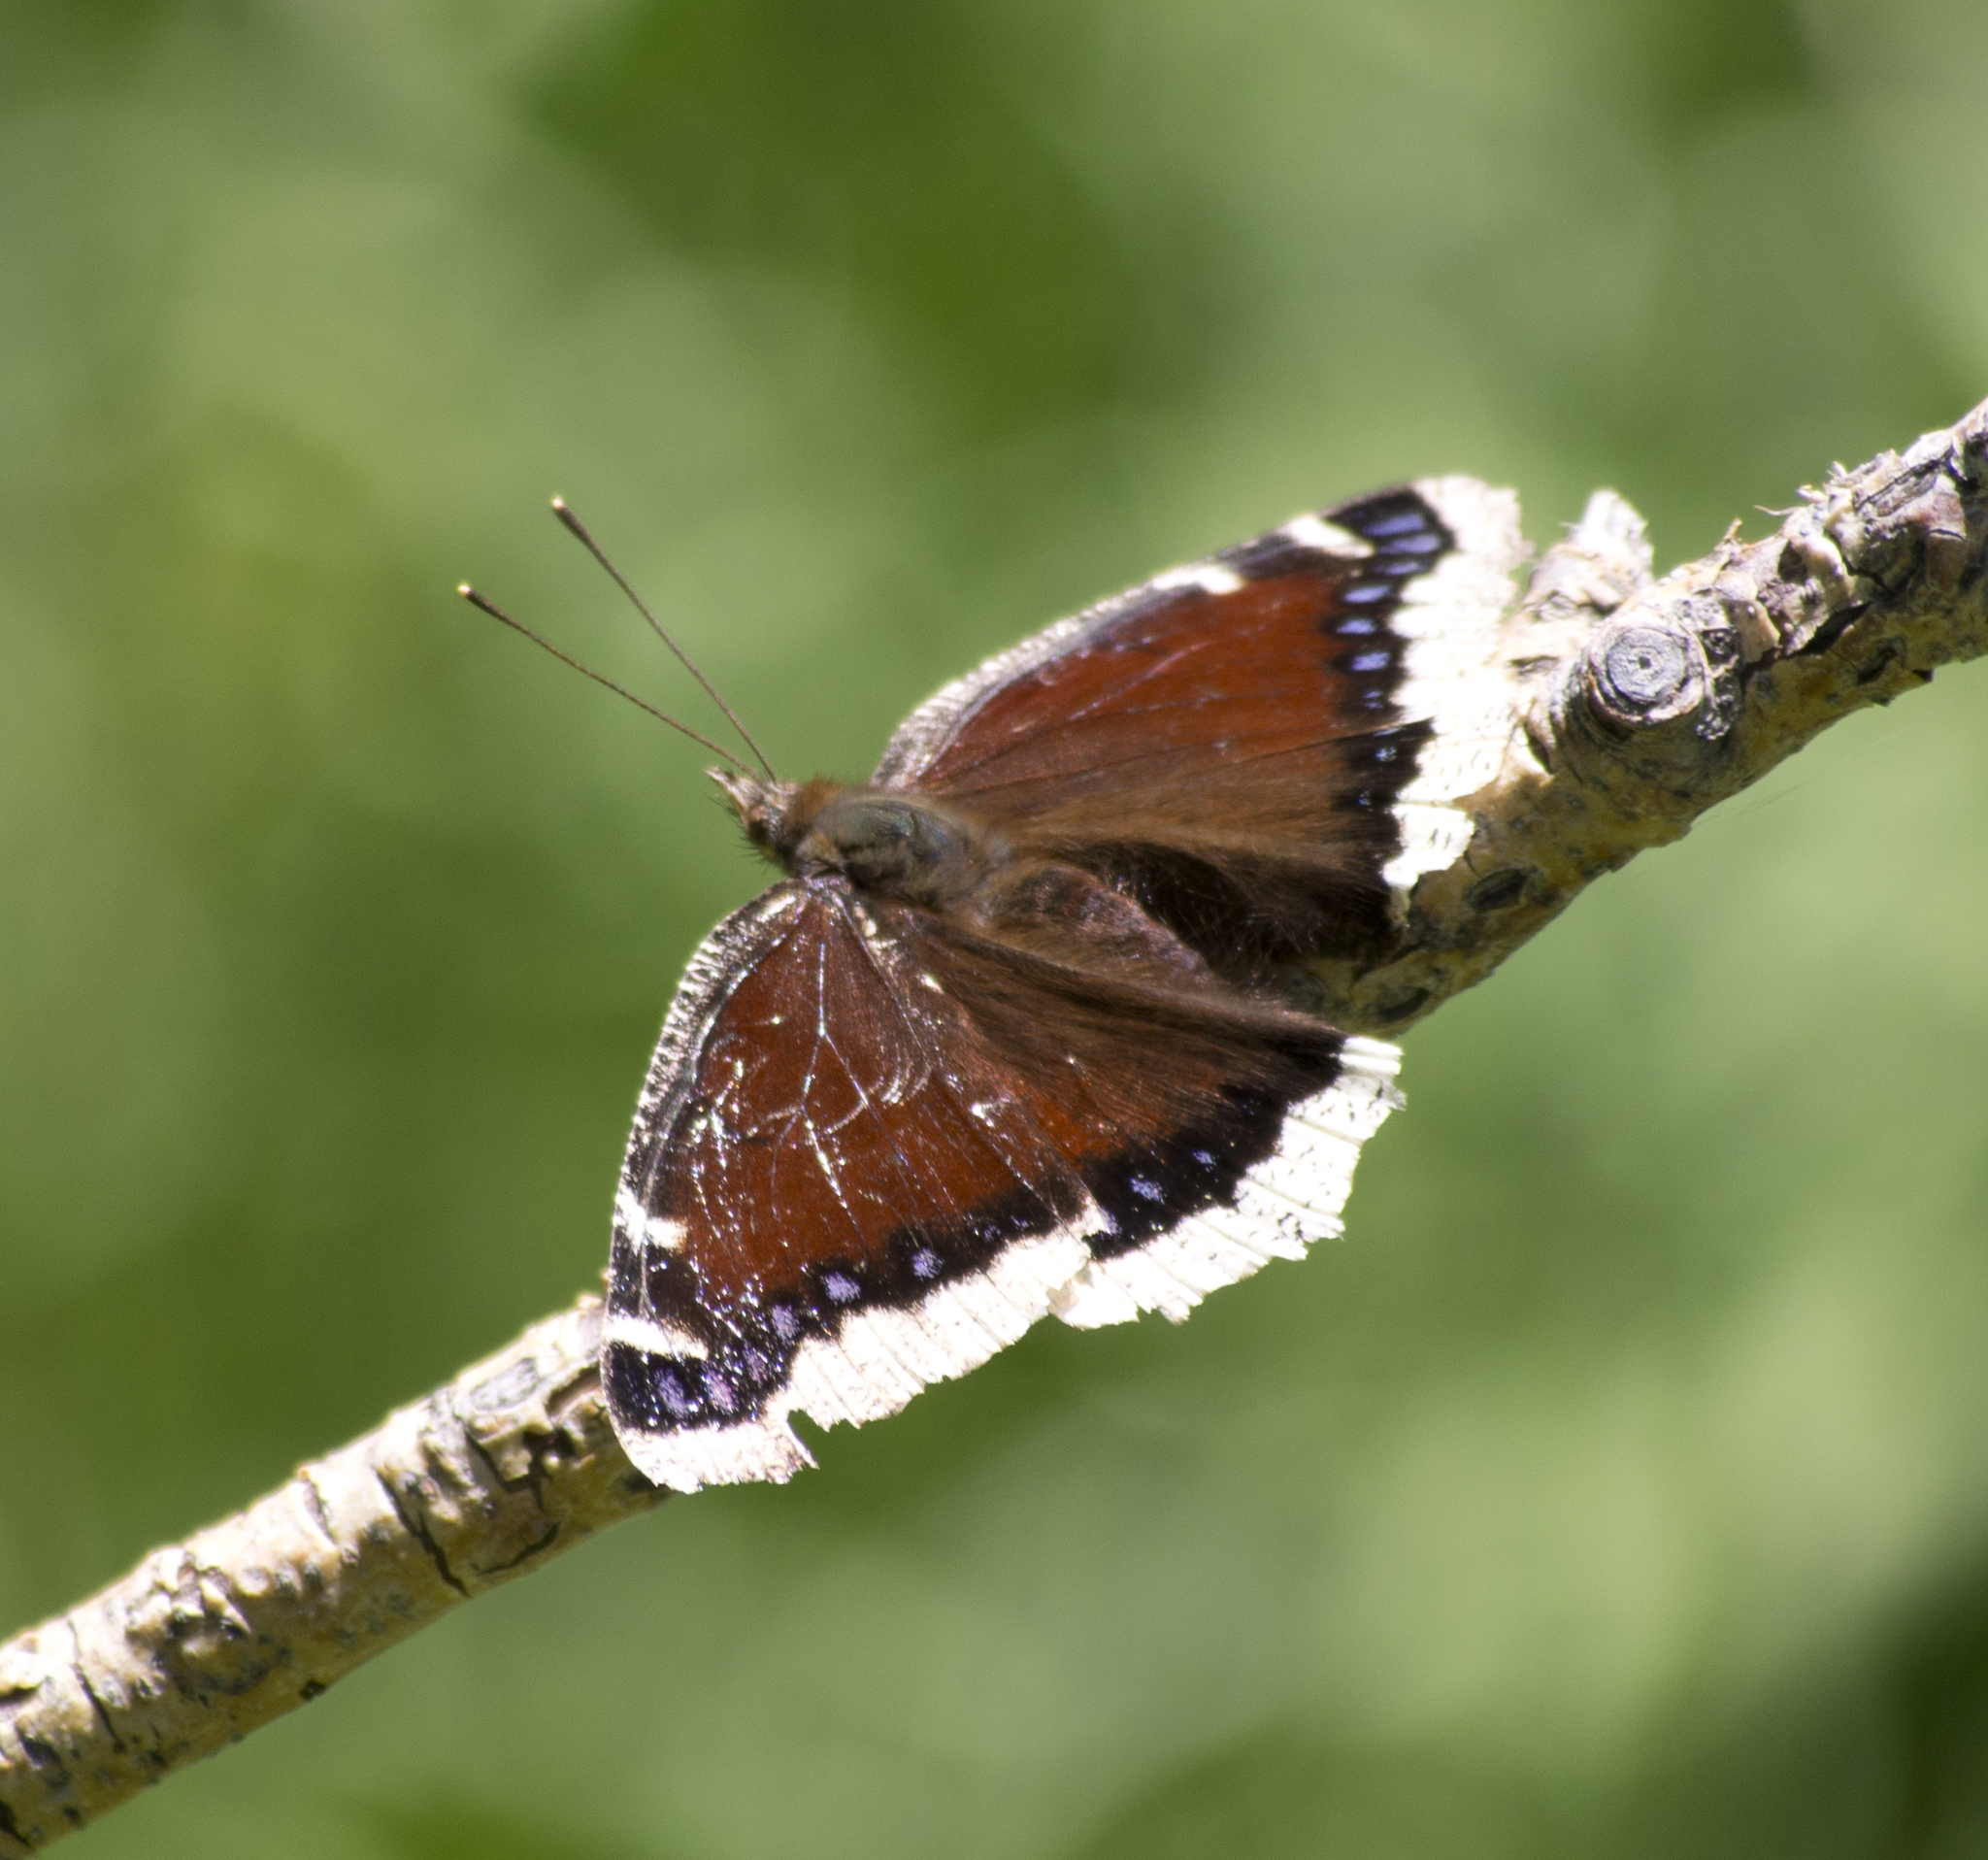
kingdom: Animalia
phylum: Arthropoda
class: Insecta
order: Lepidoptera
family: Nymphalidae
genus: Nymphalis
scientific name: Nymphalis antiopa
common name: Camberwell beauty
